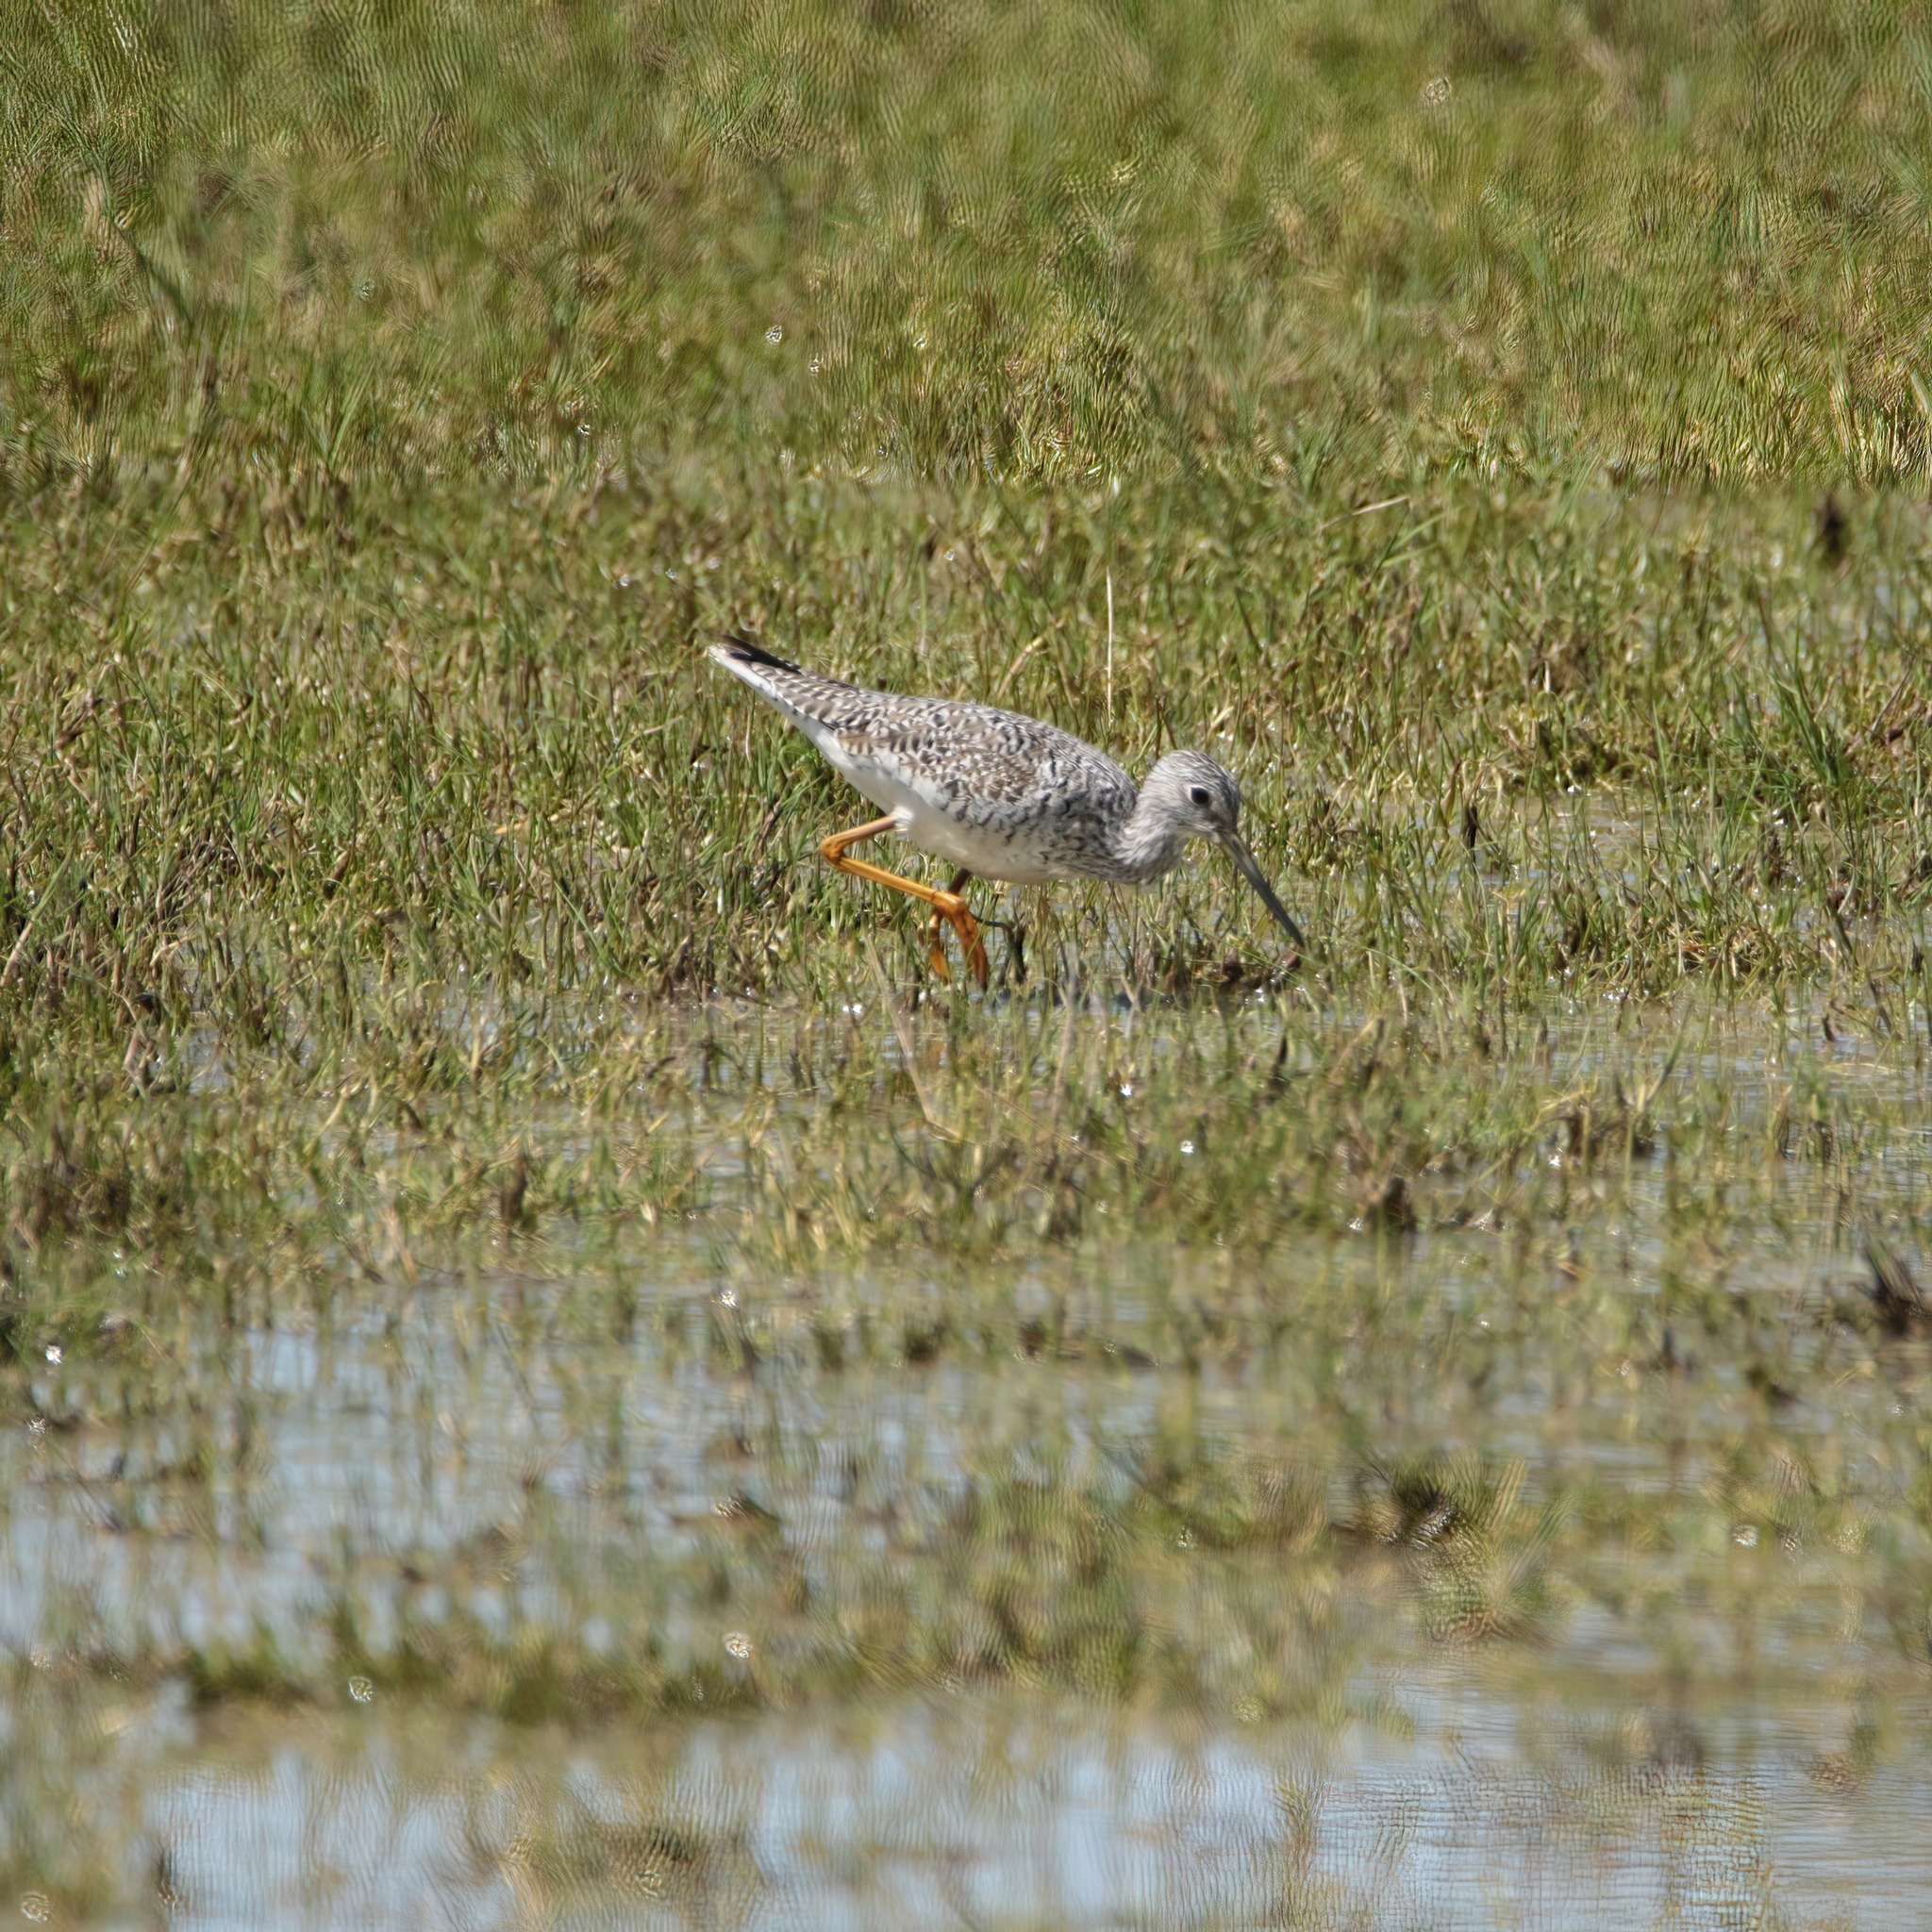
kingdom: Animalia
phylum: Chordata
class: Aves
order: Charadriiformes
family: Scolopacidae
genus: Tringa
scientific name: Tringa melanoleuca
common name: Greater yellowlegs
